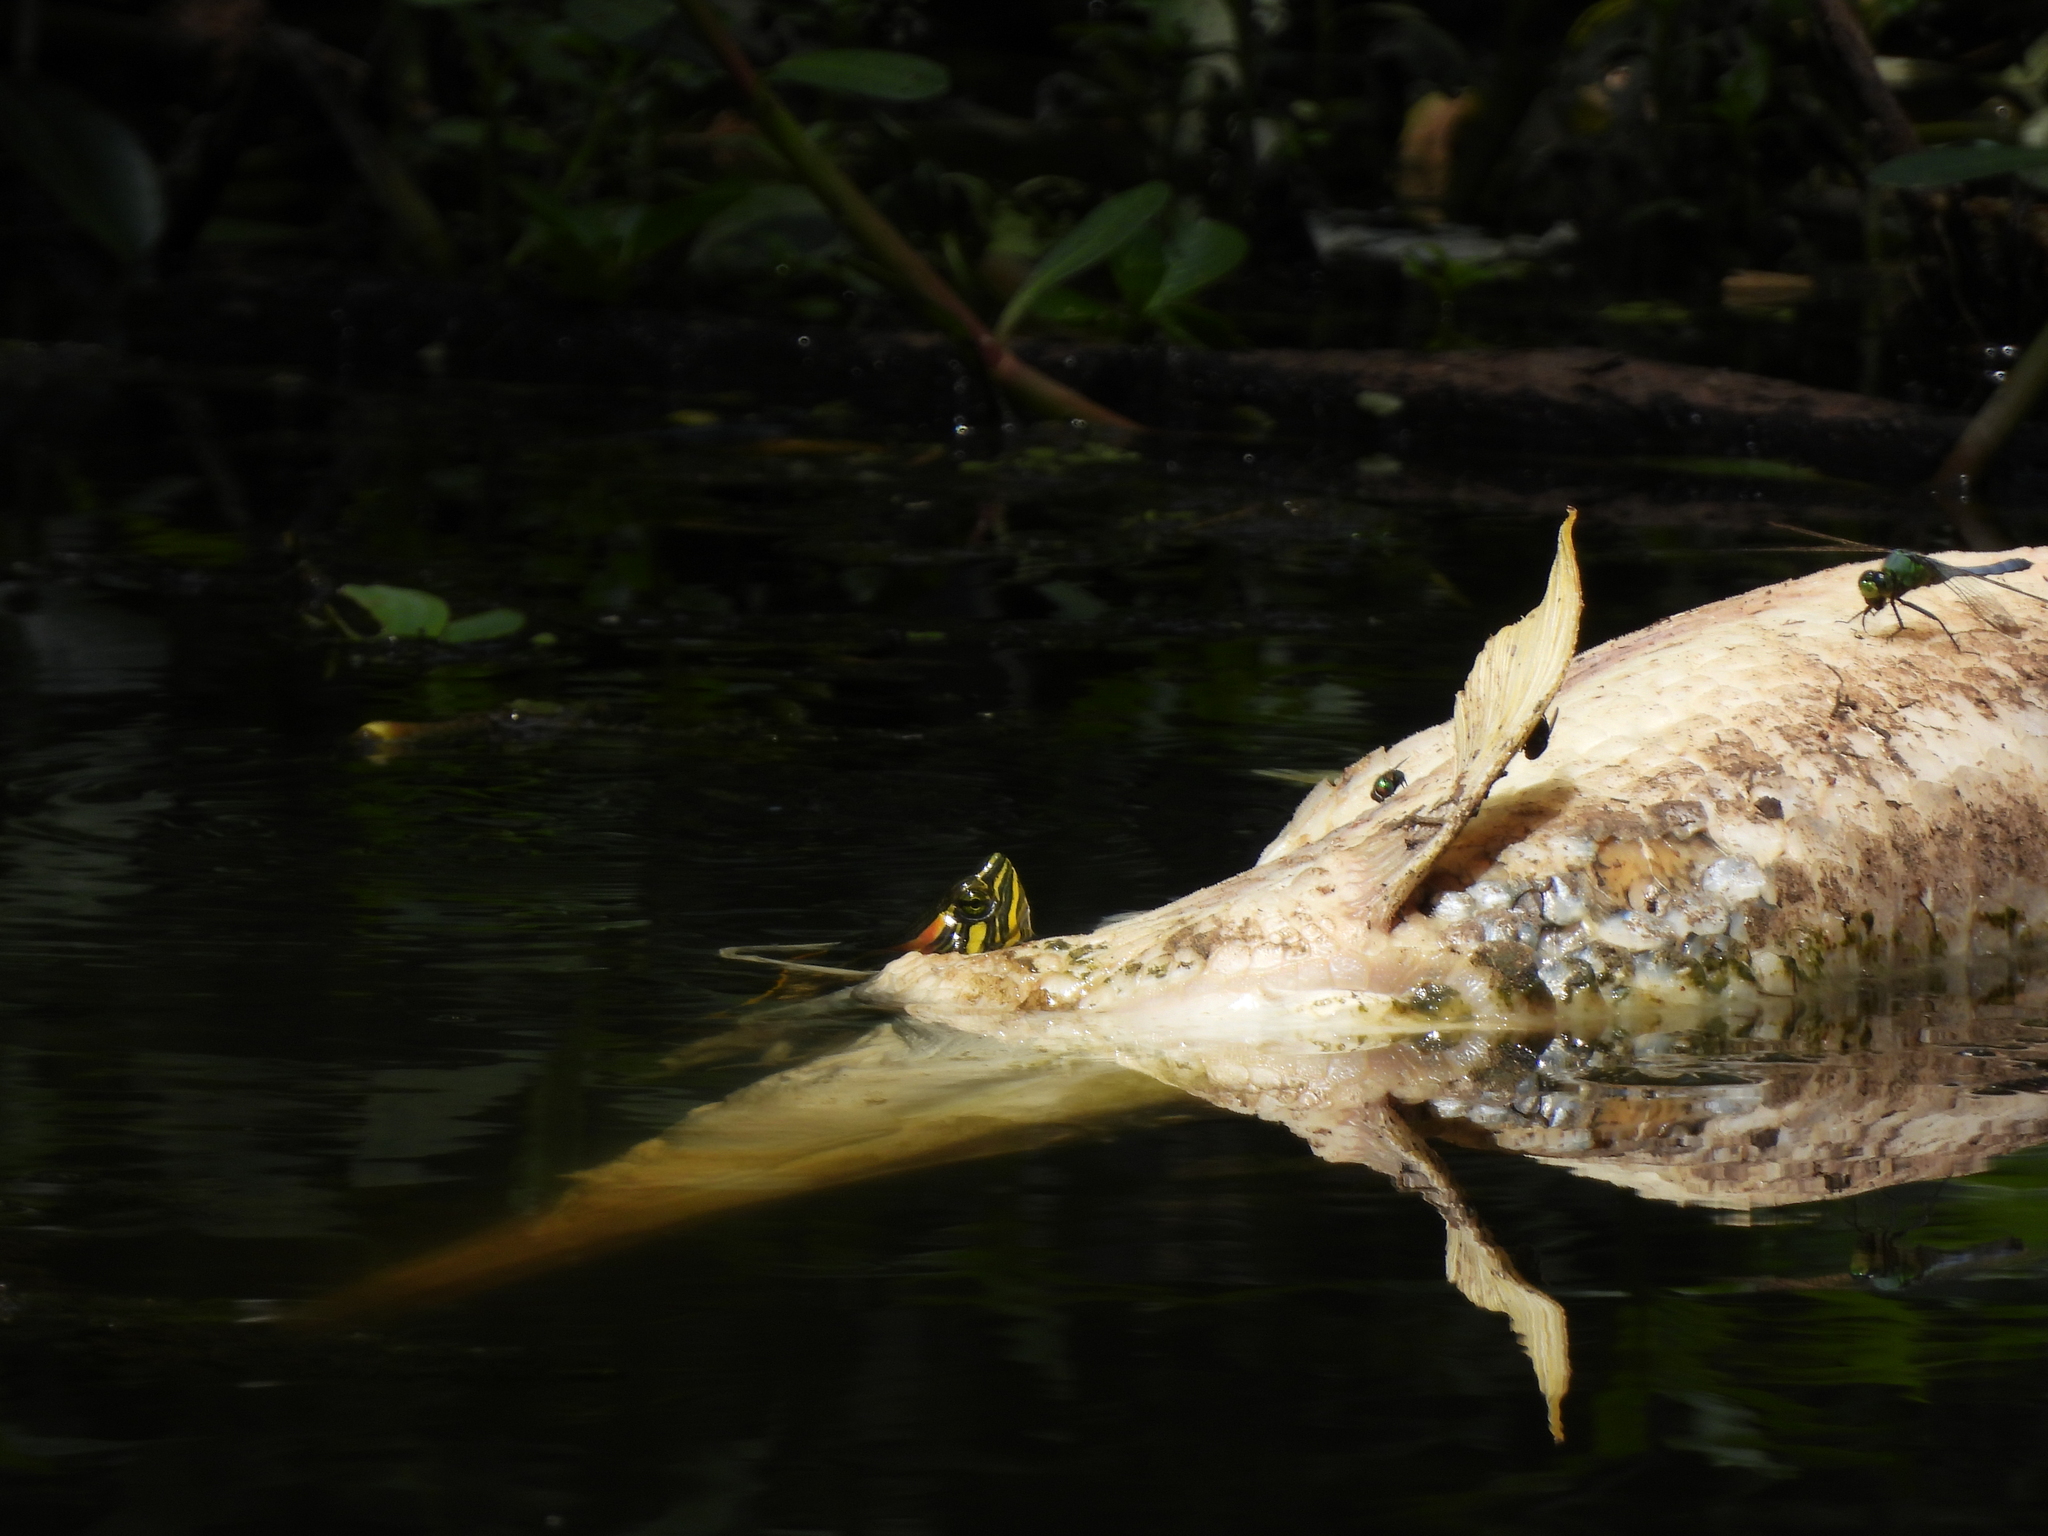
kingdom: Animalia
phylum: Chordata
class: Testudines
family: Emydidae
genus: Trachemys
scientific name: Trachemys scripta
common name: Slider
